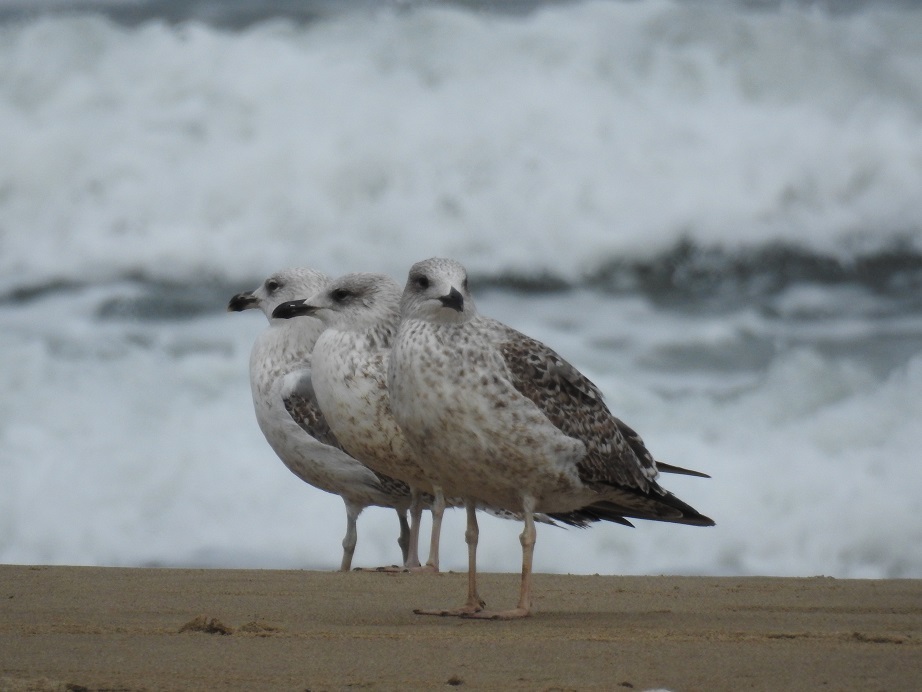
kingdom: Animalia
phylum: Chordata
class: Aves
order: Charadriiformes
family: Laridae
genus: Larus
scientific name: Larus fuscus
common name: Lesser black-backed gull
